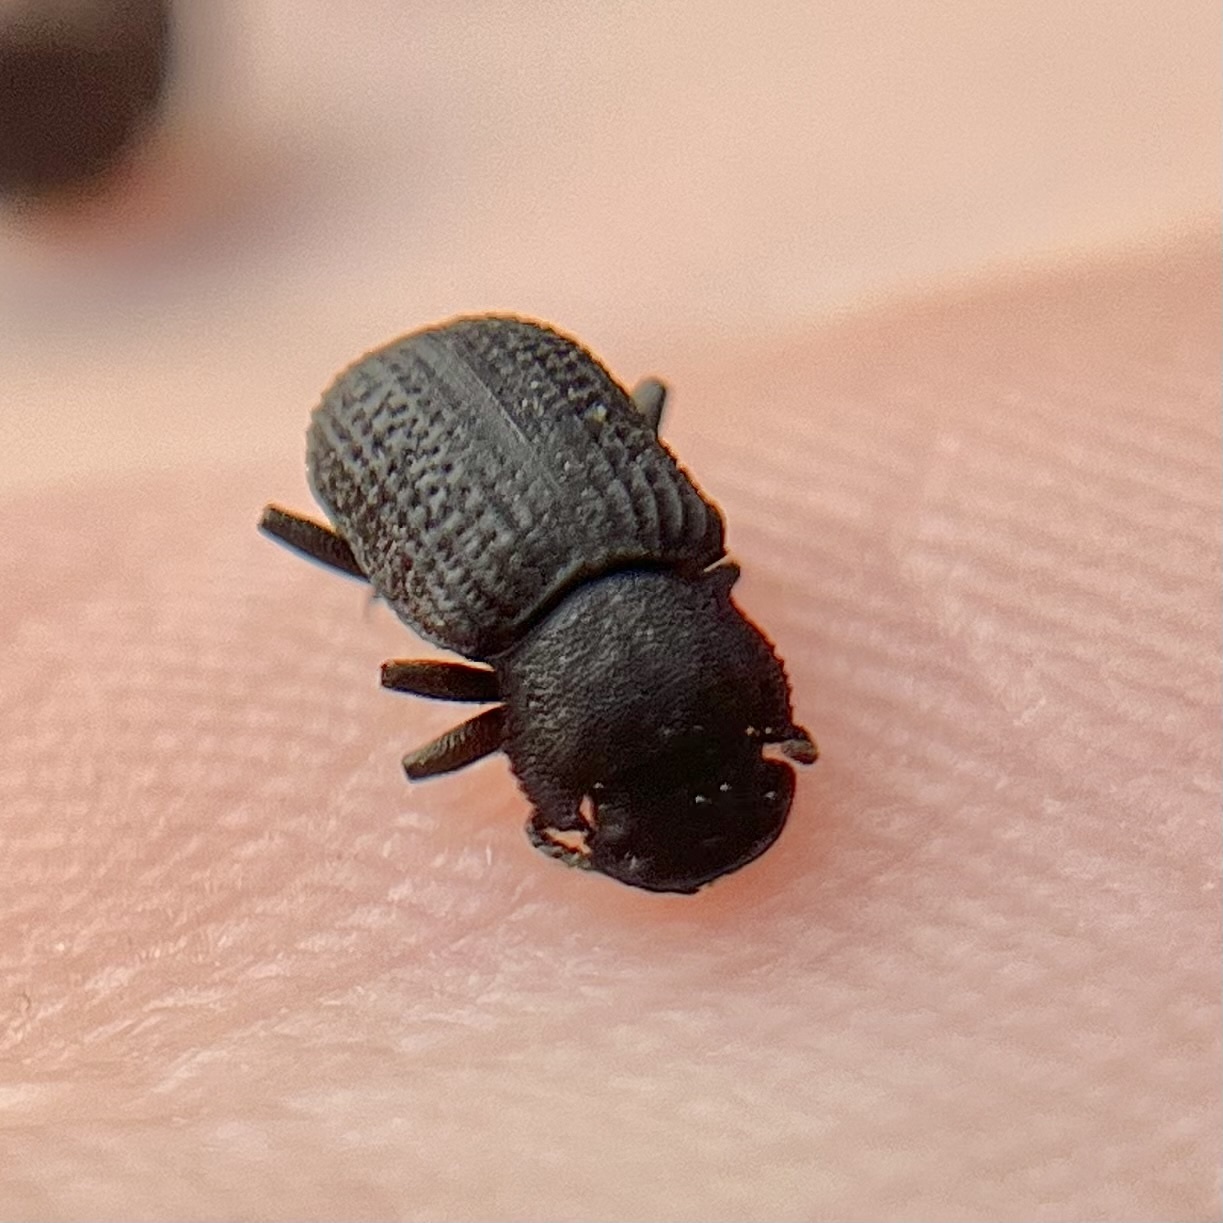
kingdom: Animalia
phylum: Arthropoda
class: Insecta
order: Coleoptera
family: Tenebrionidae
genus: Bolitophagus
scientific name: Bolitophagus reticulatus
